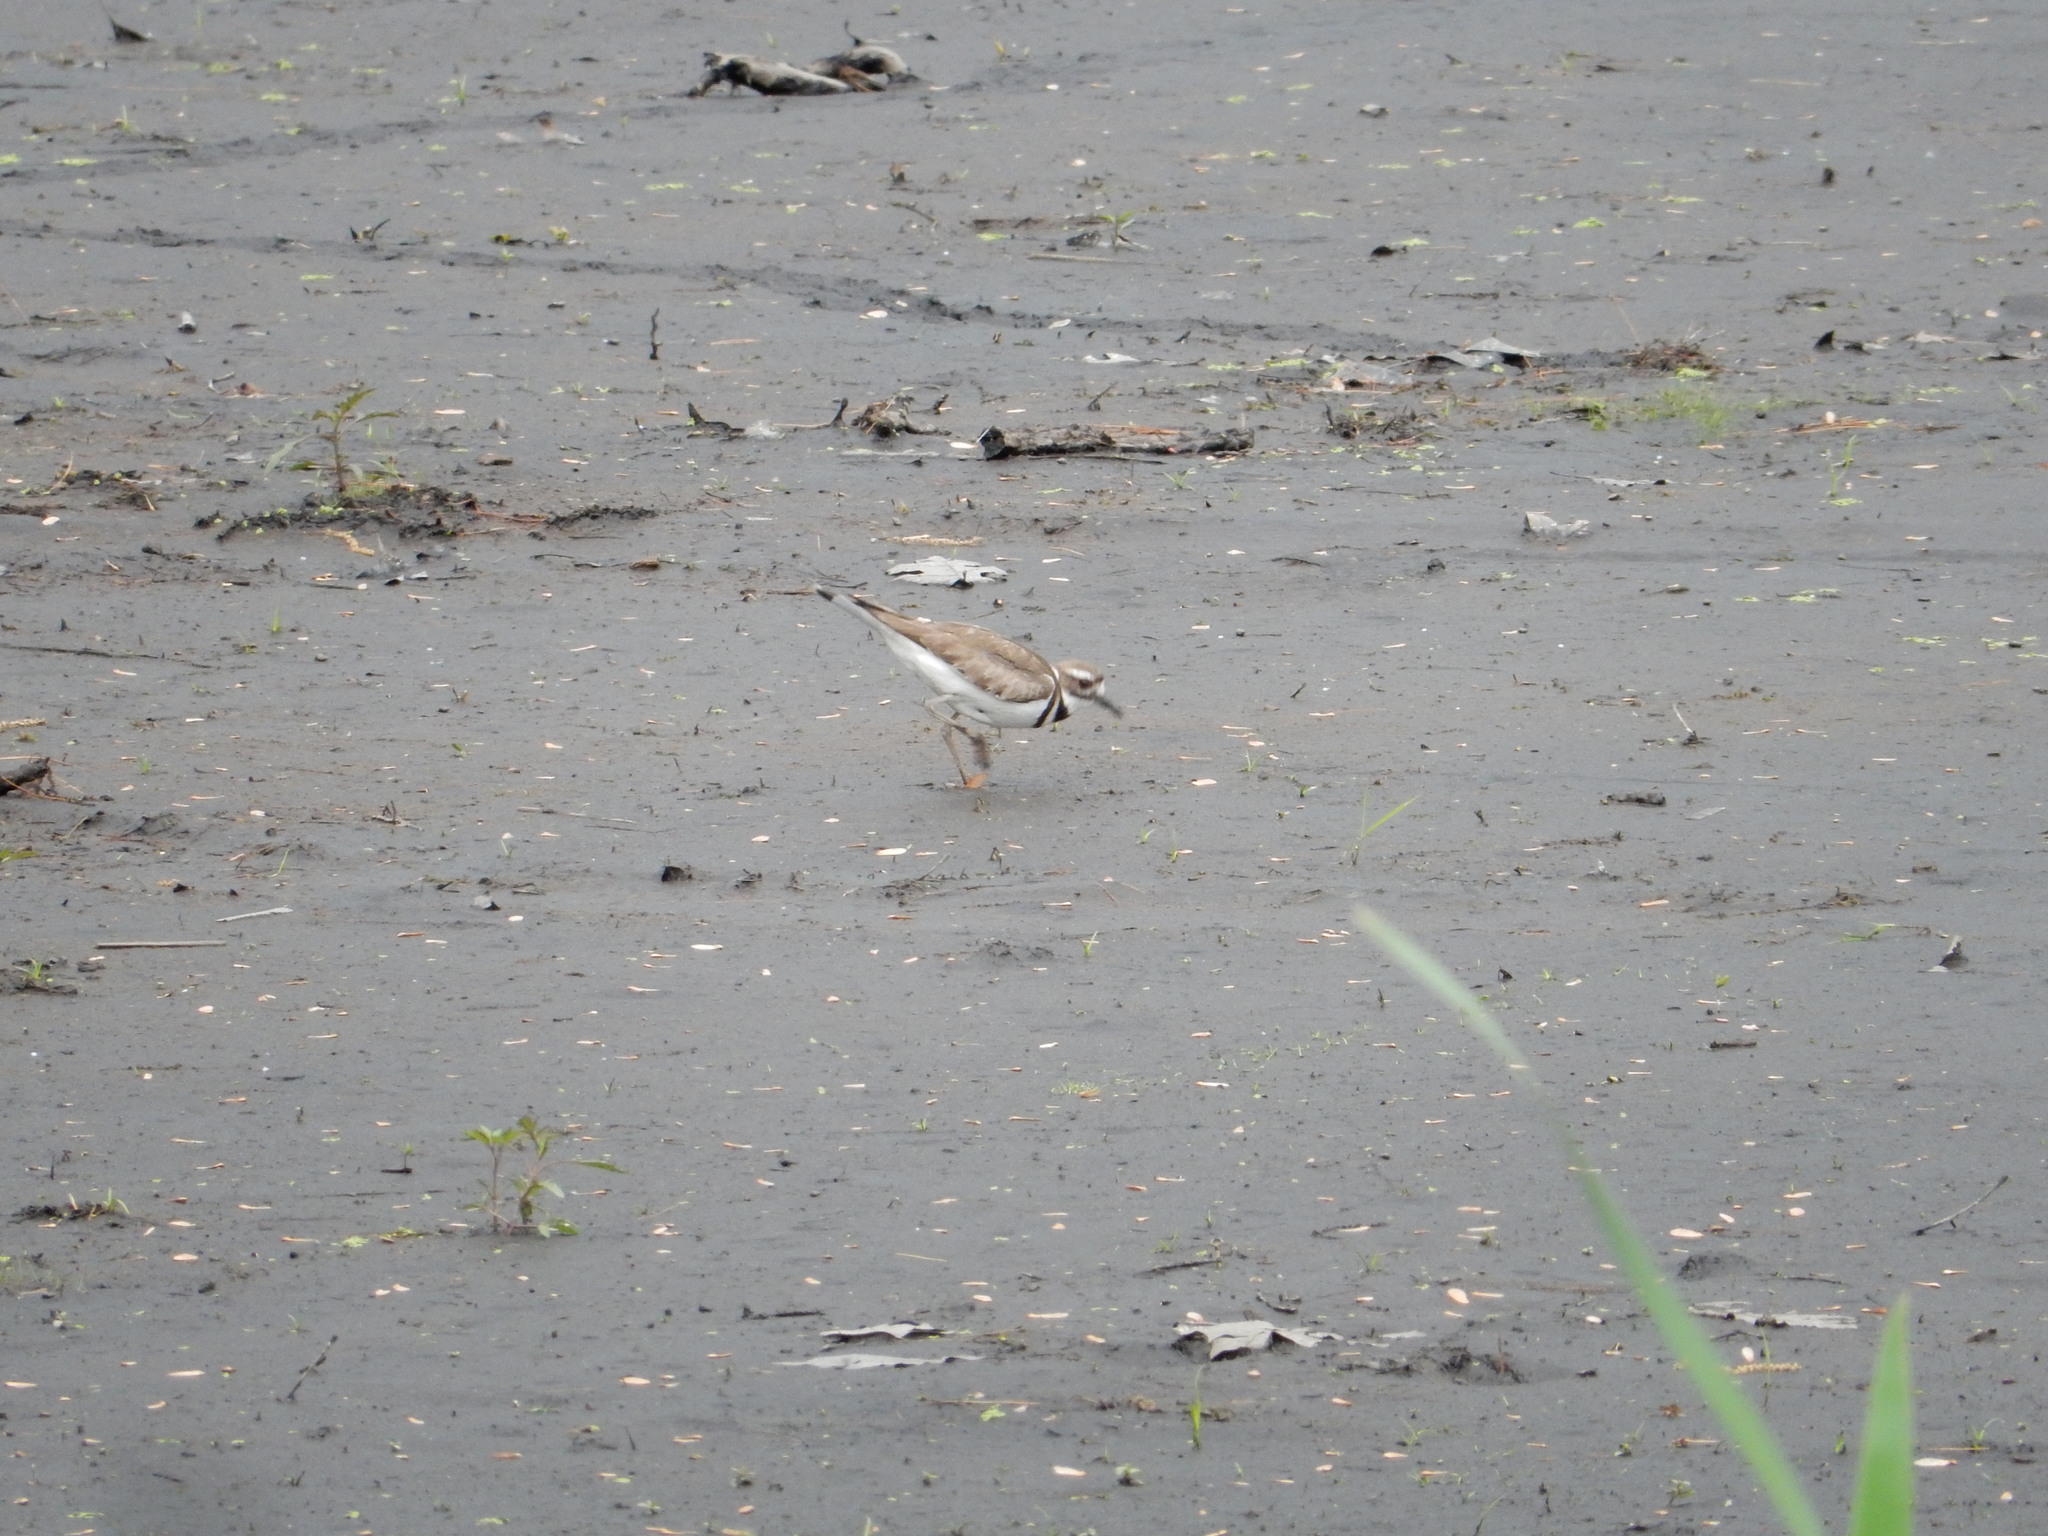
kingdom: Animalia
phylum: Chordata
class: Aves
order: Charadriiformes
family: Charadriidae
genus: Charadrius
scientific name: Charadrius vociferus
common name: Killdeer
